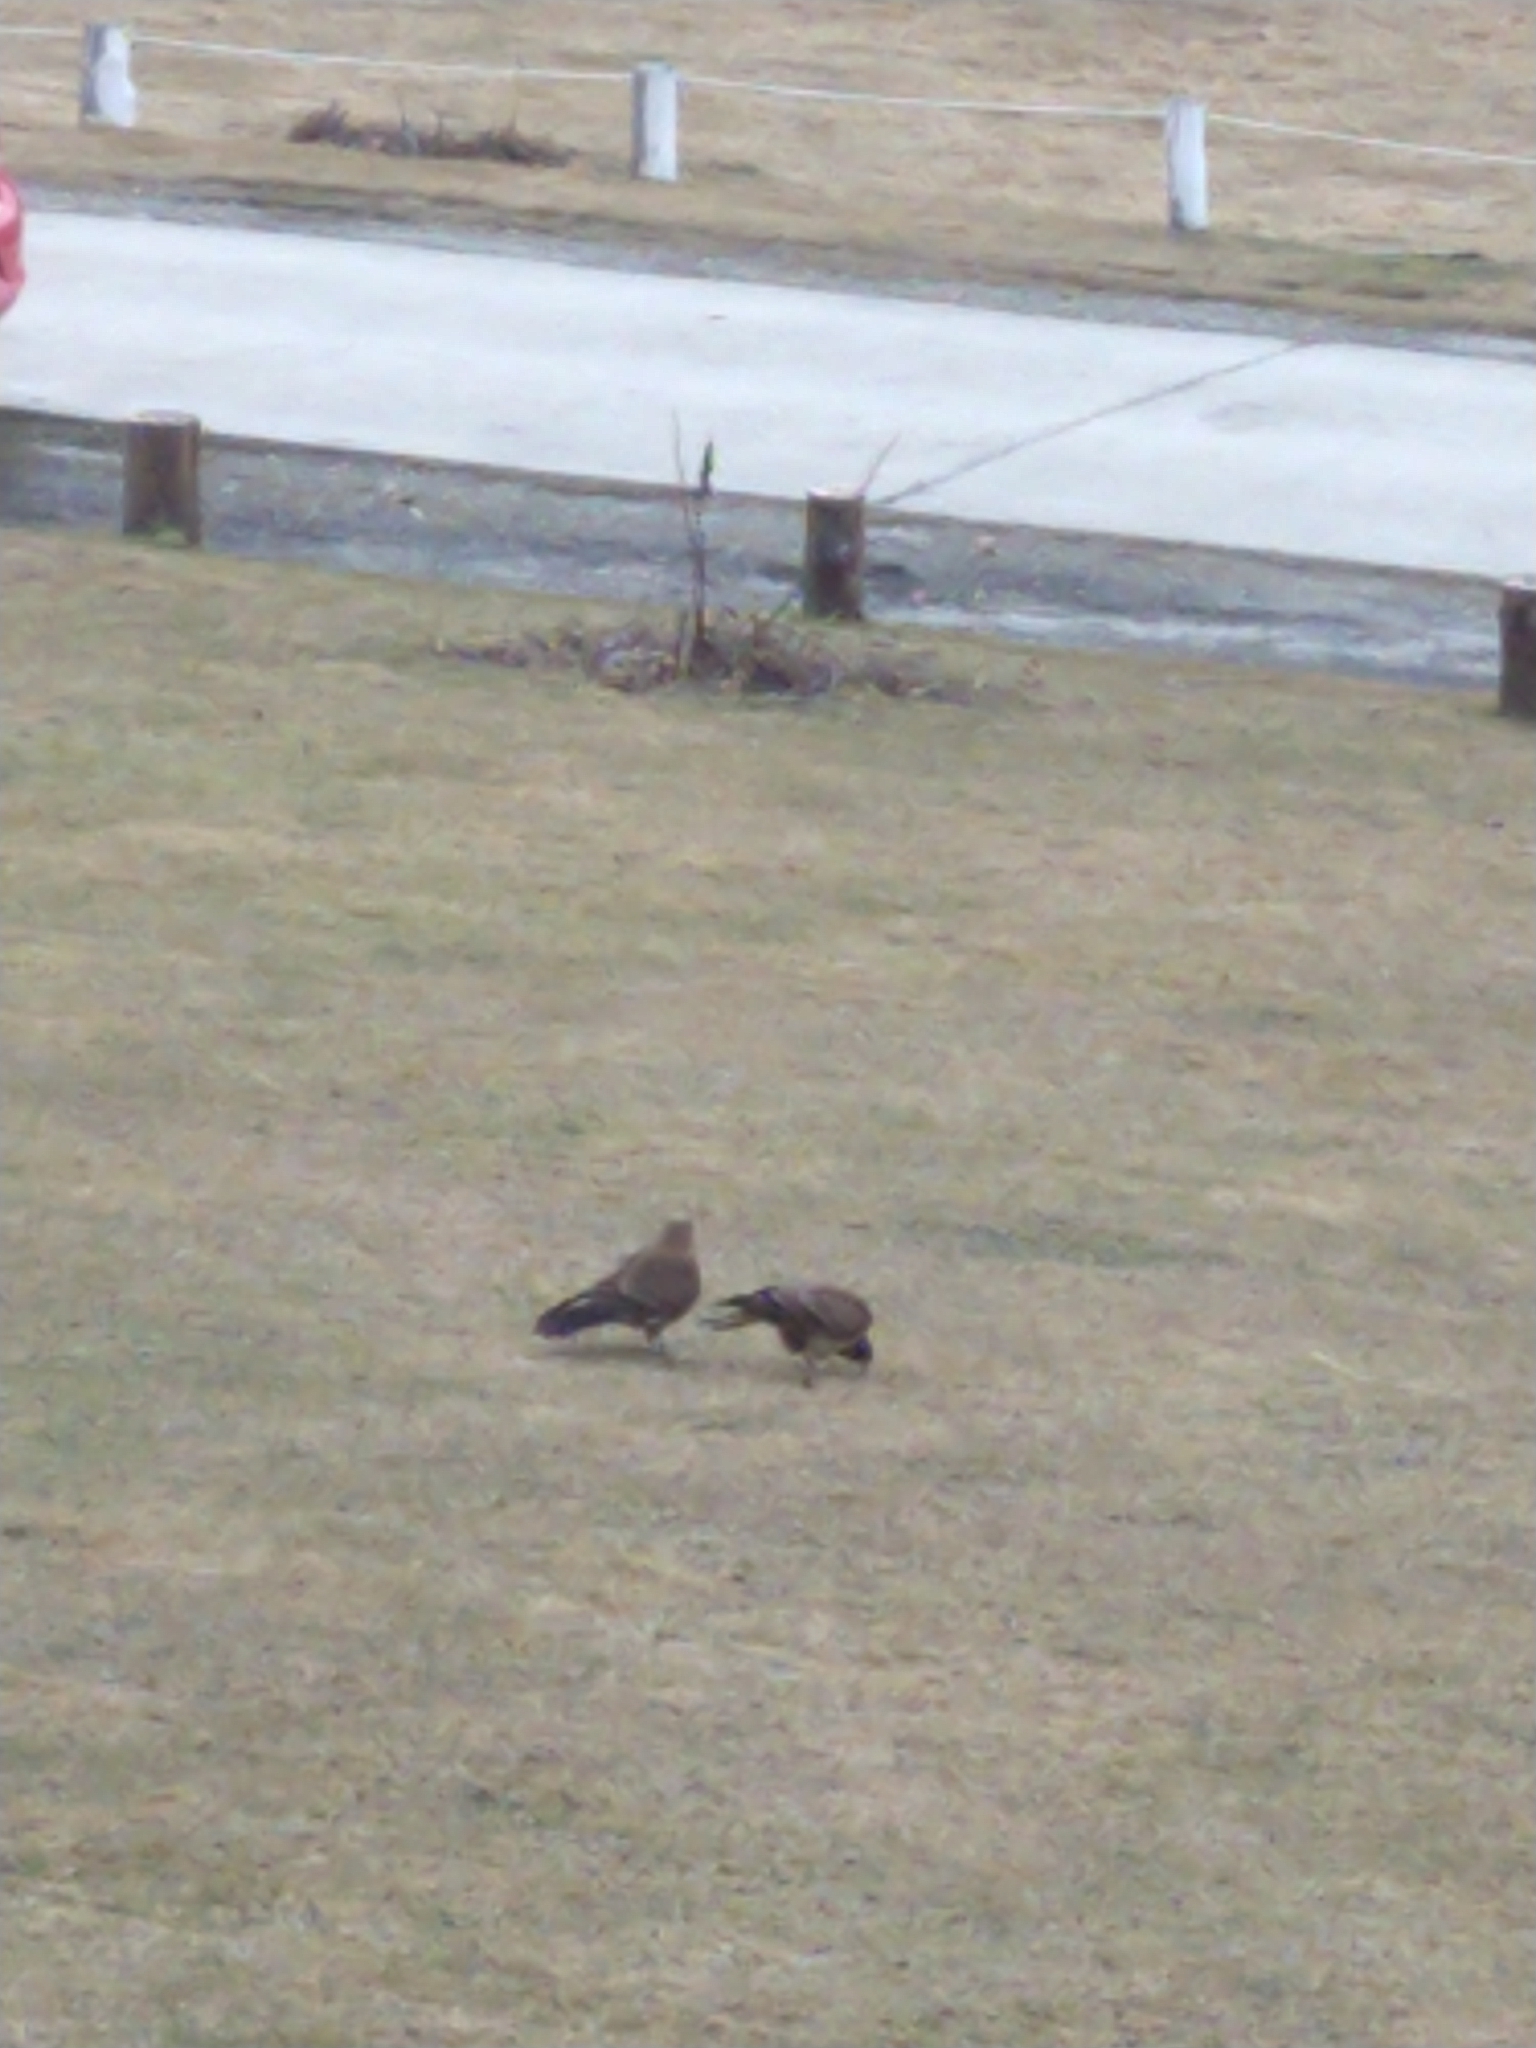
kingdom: Animalia
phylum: Chordata
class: Aves
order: Falconiformes
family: Falconidae
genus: Daptrius
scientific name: Daptrius
